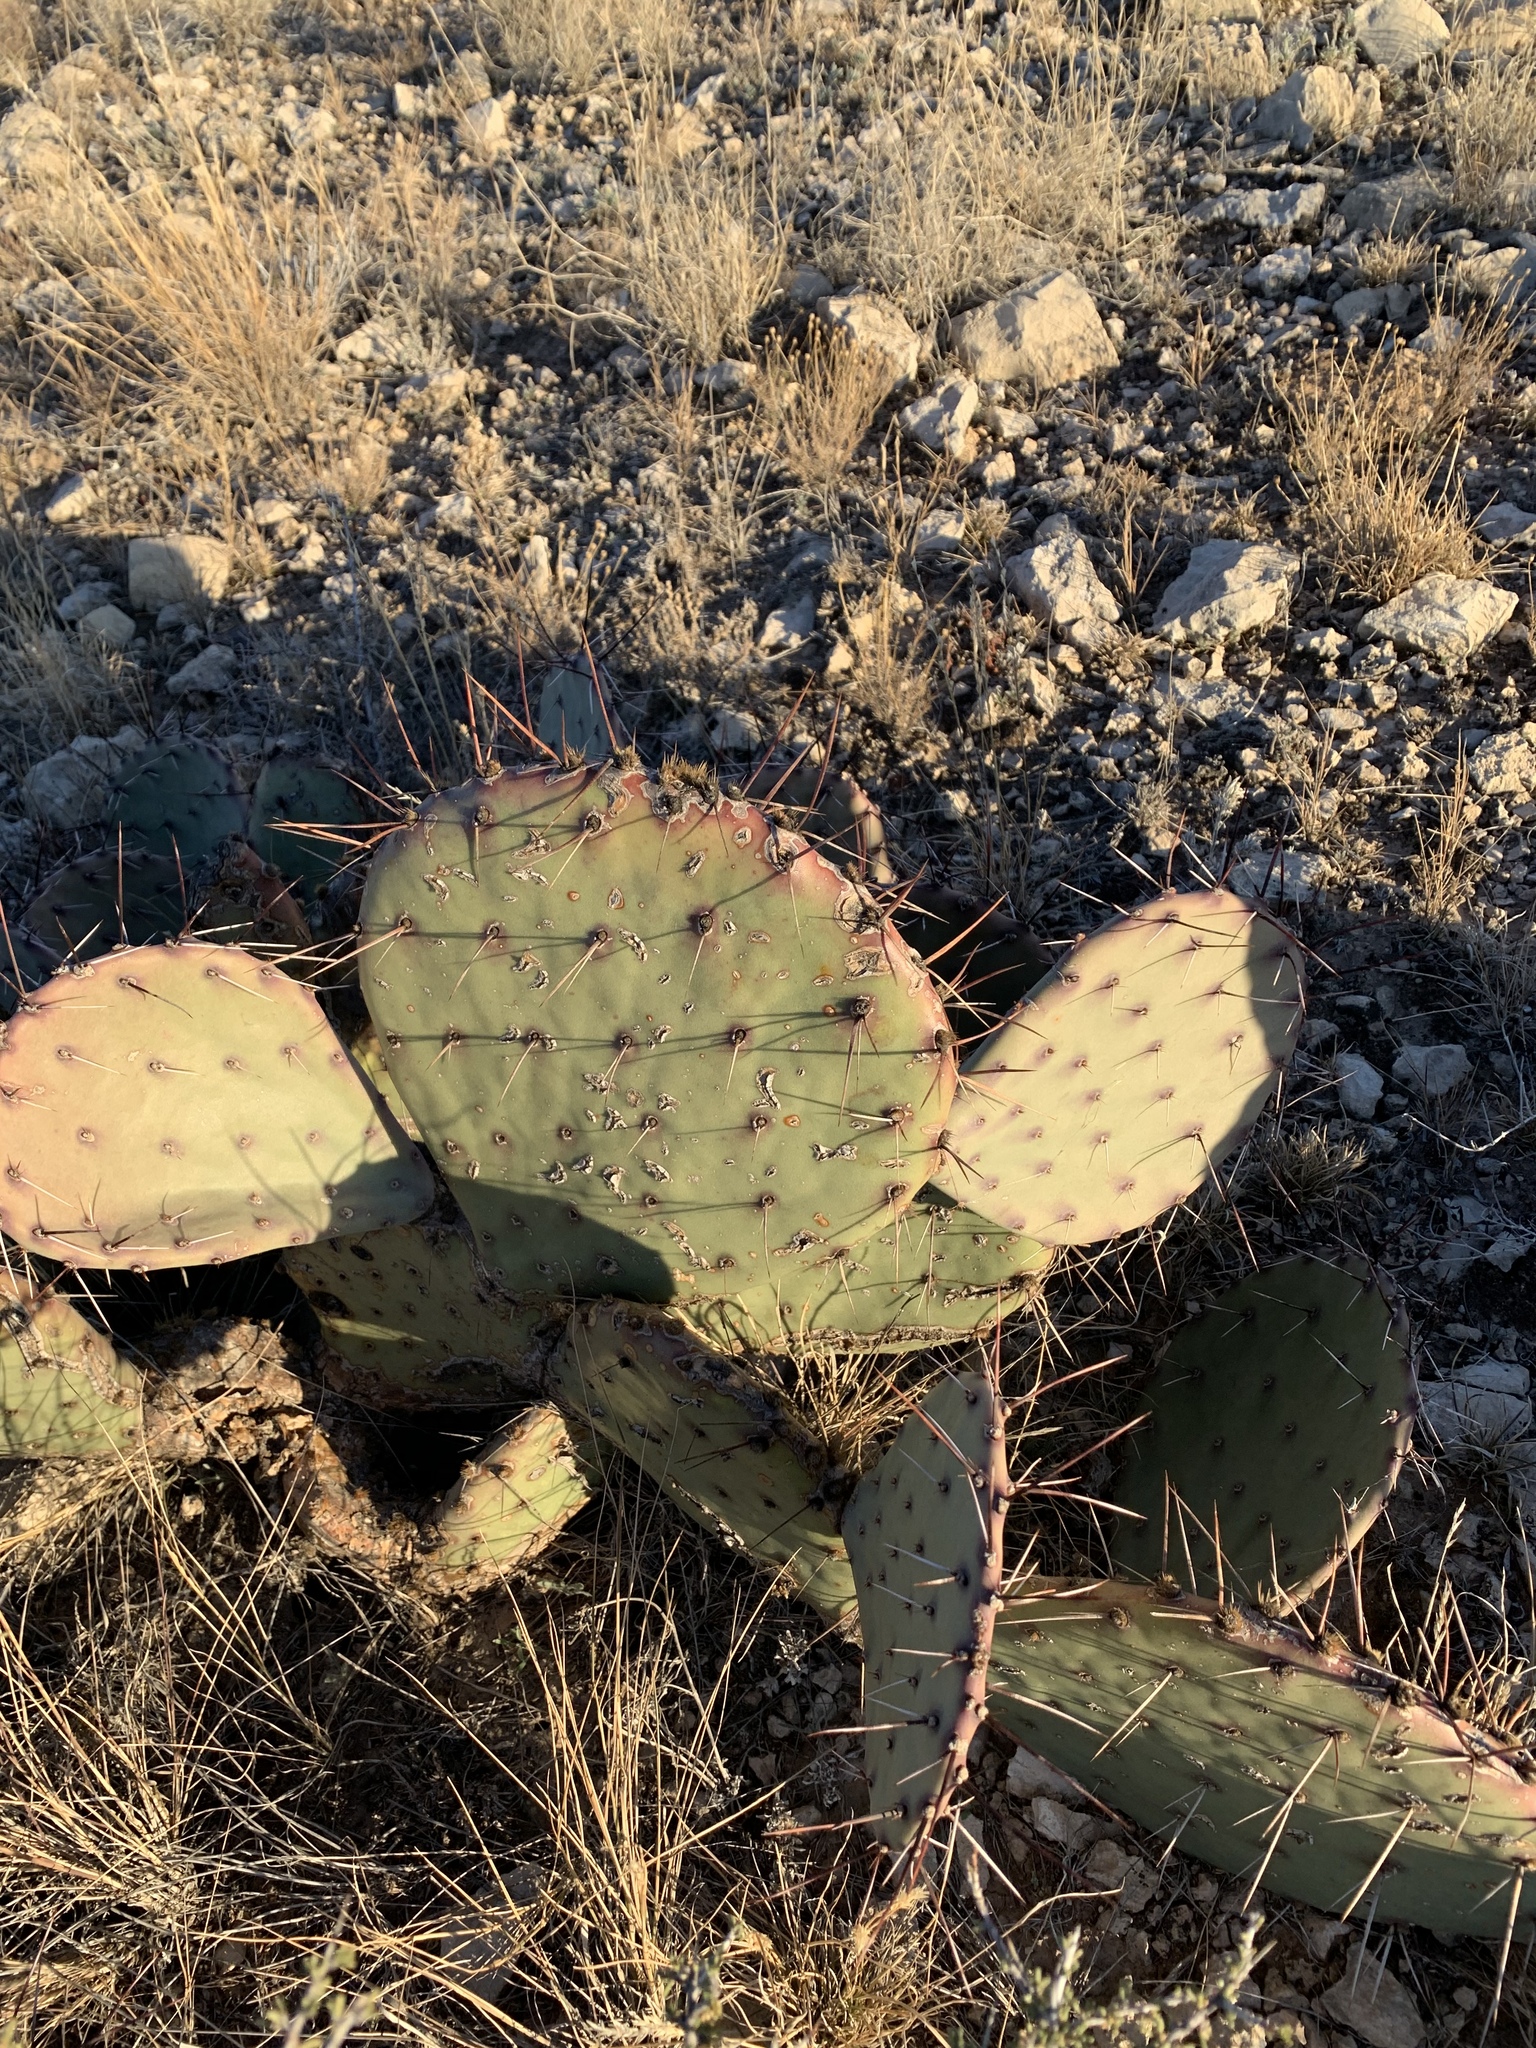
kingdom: Plantae
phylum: Tracheophyta
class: Magnoliopsida
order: Caryophyllales
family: Cactaceae
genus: Opuntia
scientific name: Opuntia phaeacantha
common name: New mexico prickly-pear
